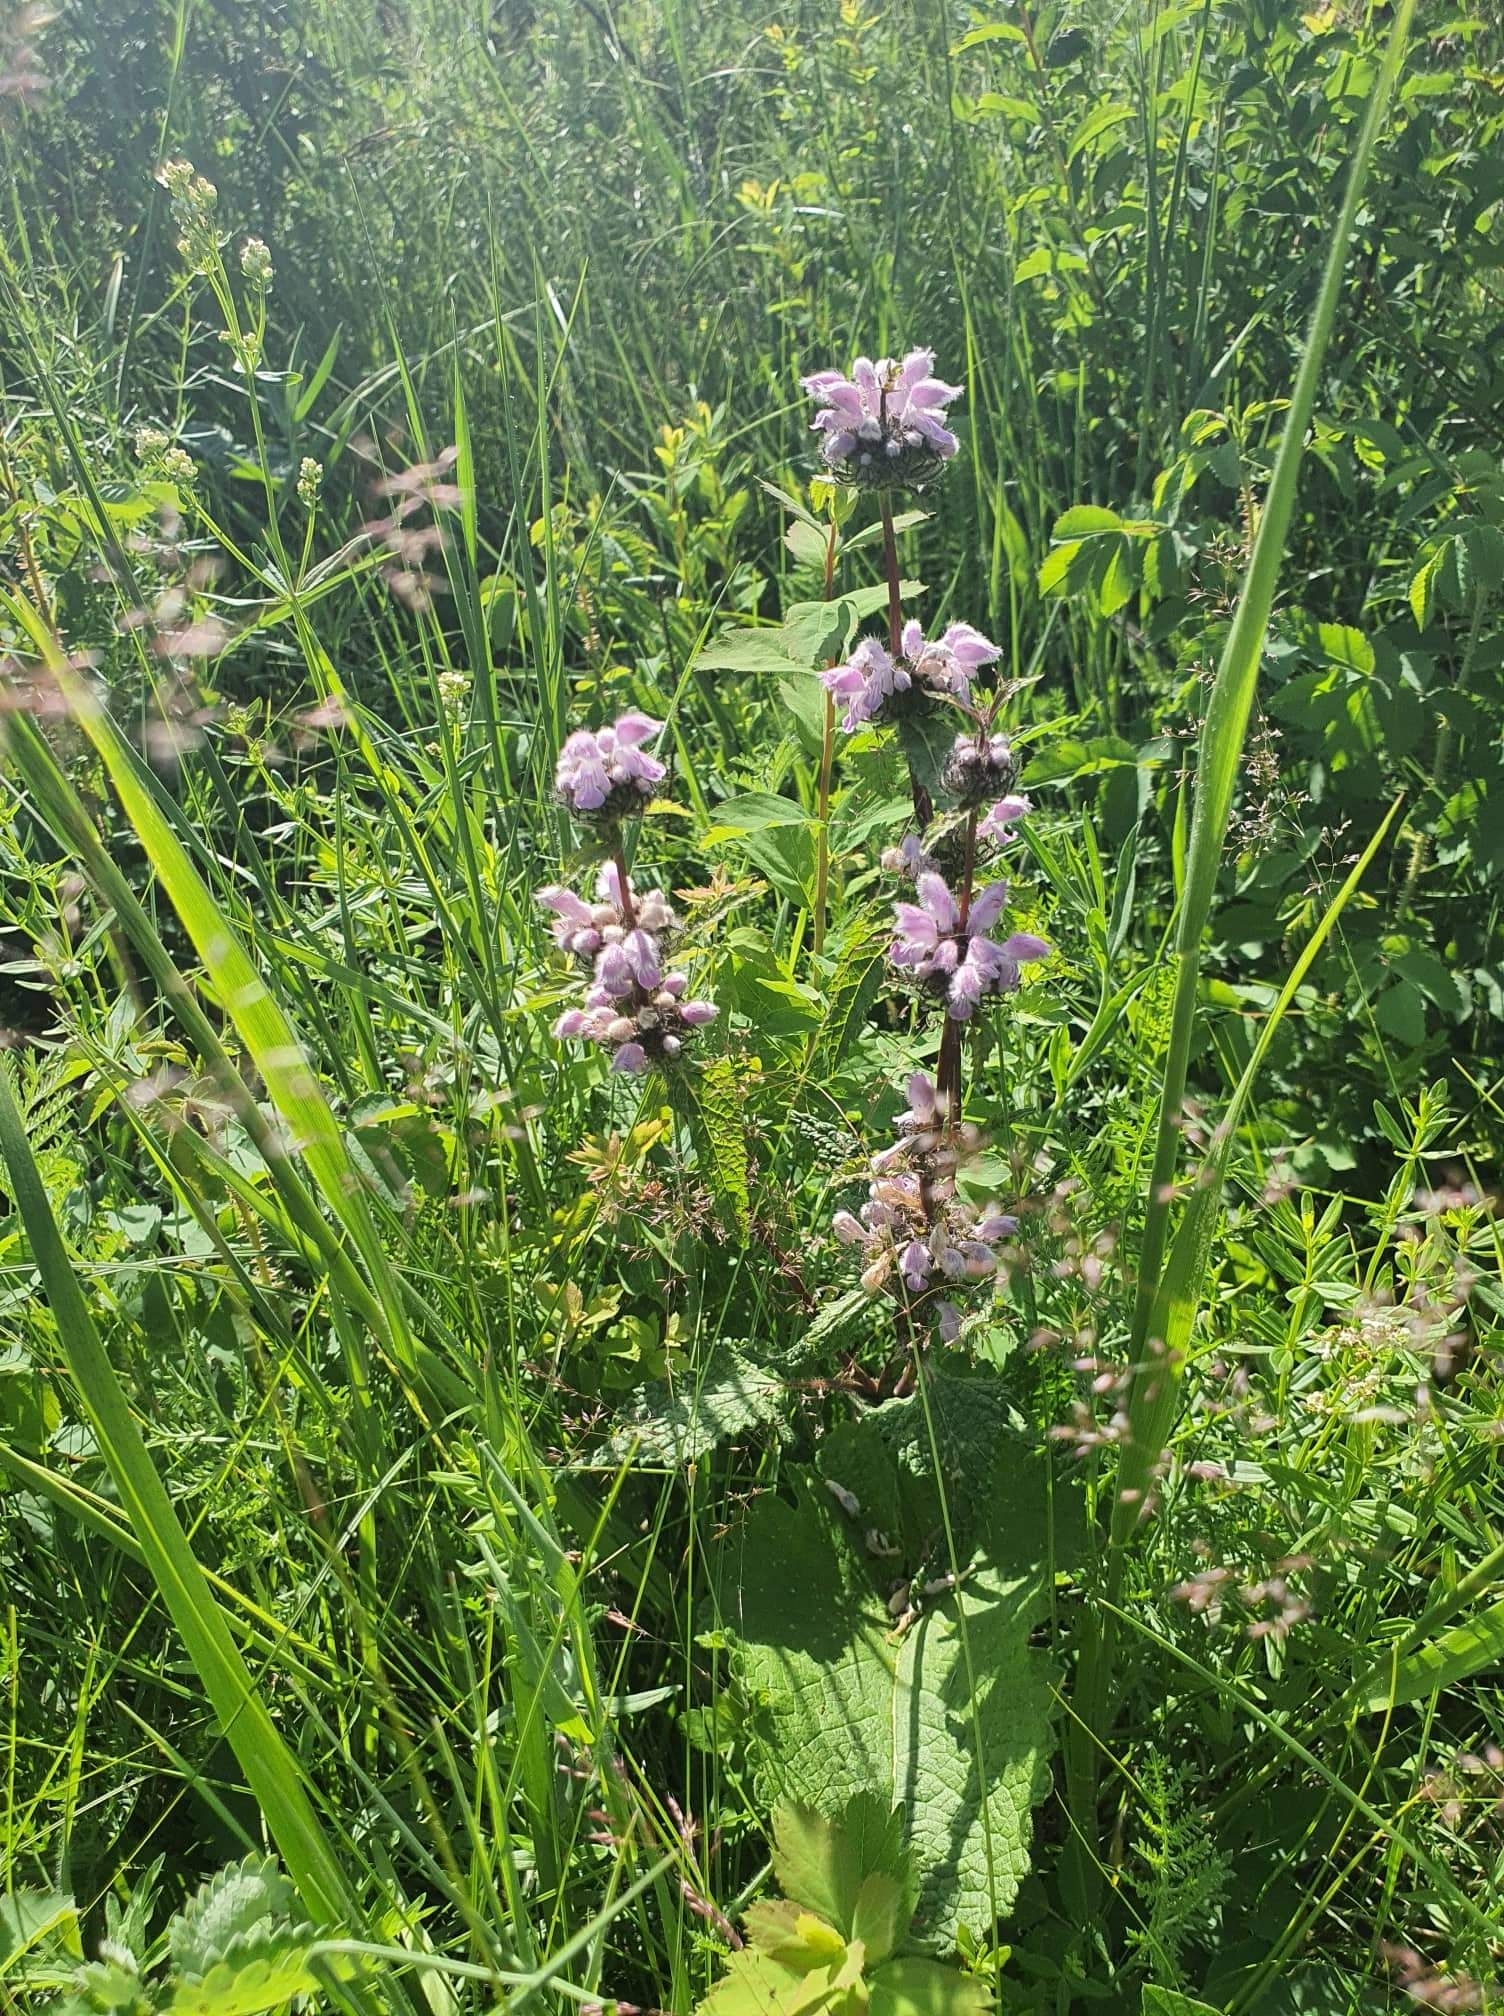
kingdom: Plantae
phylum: Tracheophyta
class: Magnoliopsida
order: Lamiales
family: Lamiaceae
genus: Phlomoides
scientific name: Phlomoides tuberosa
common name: Tuberous jerusalem sage
